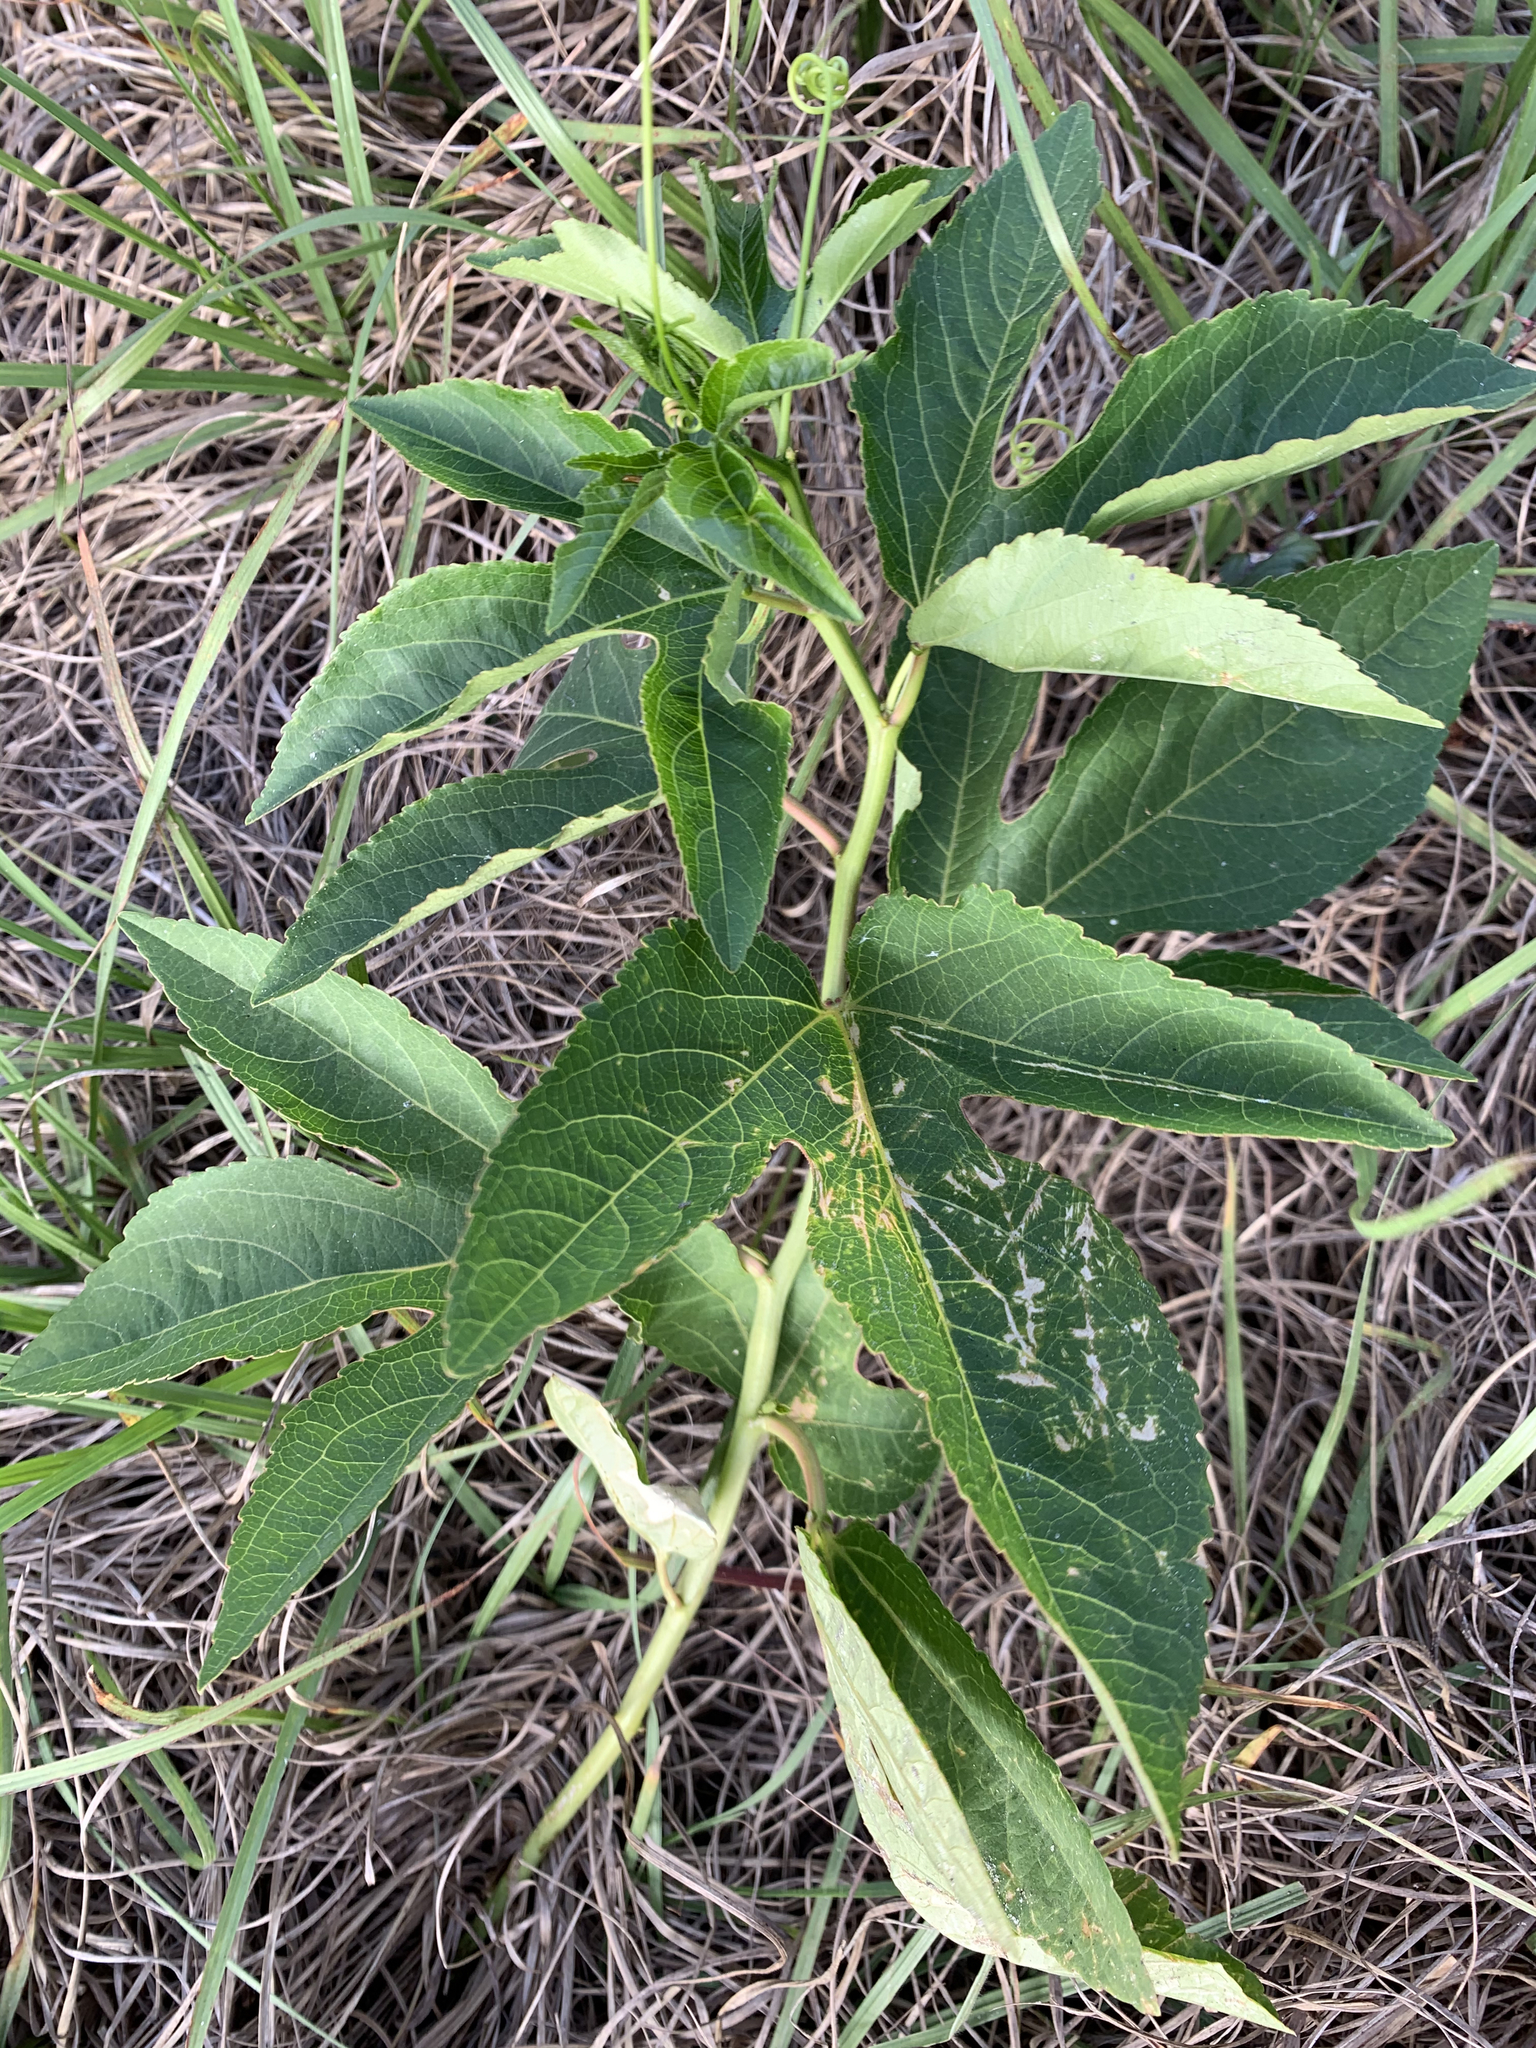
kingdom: Plantae
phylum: Tracheophyta
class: Magnoliopsida
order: Malpighiales
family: Passifloraceae
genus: Passiflora
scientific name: Passiflora incarnata
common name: Apricot-vine
